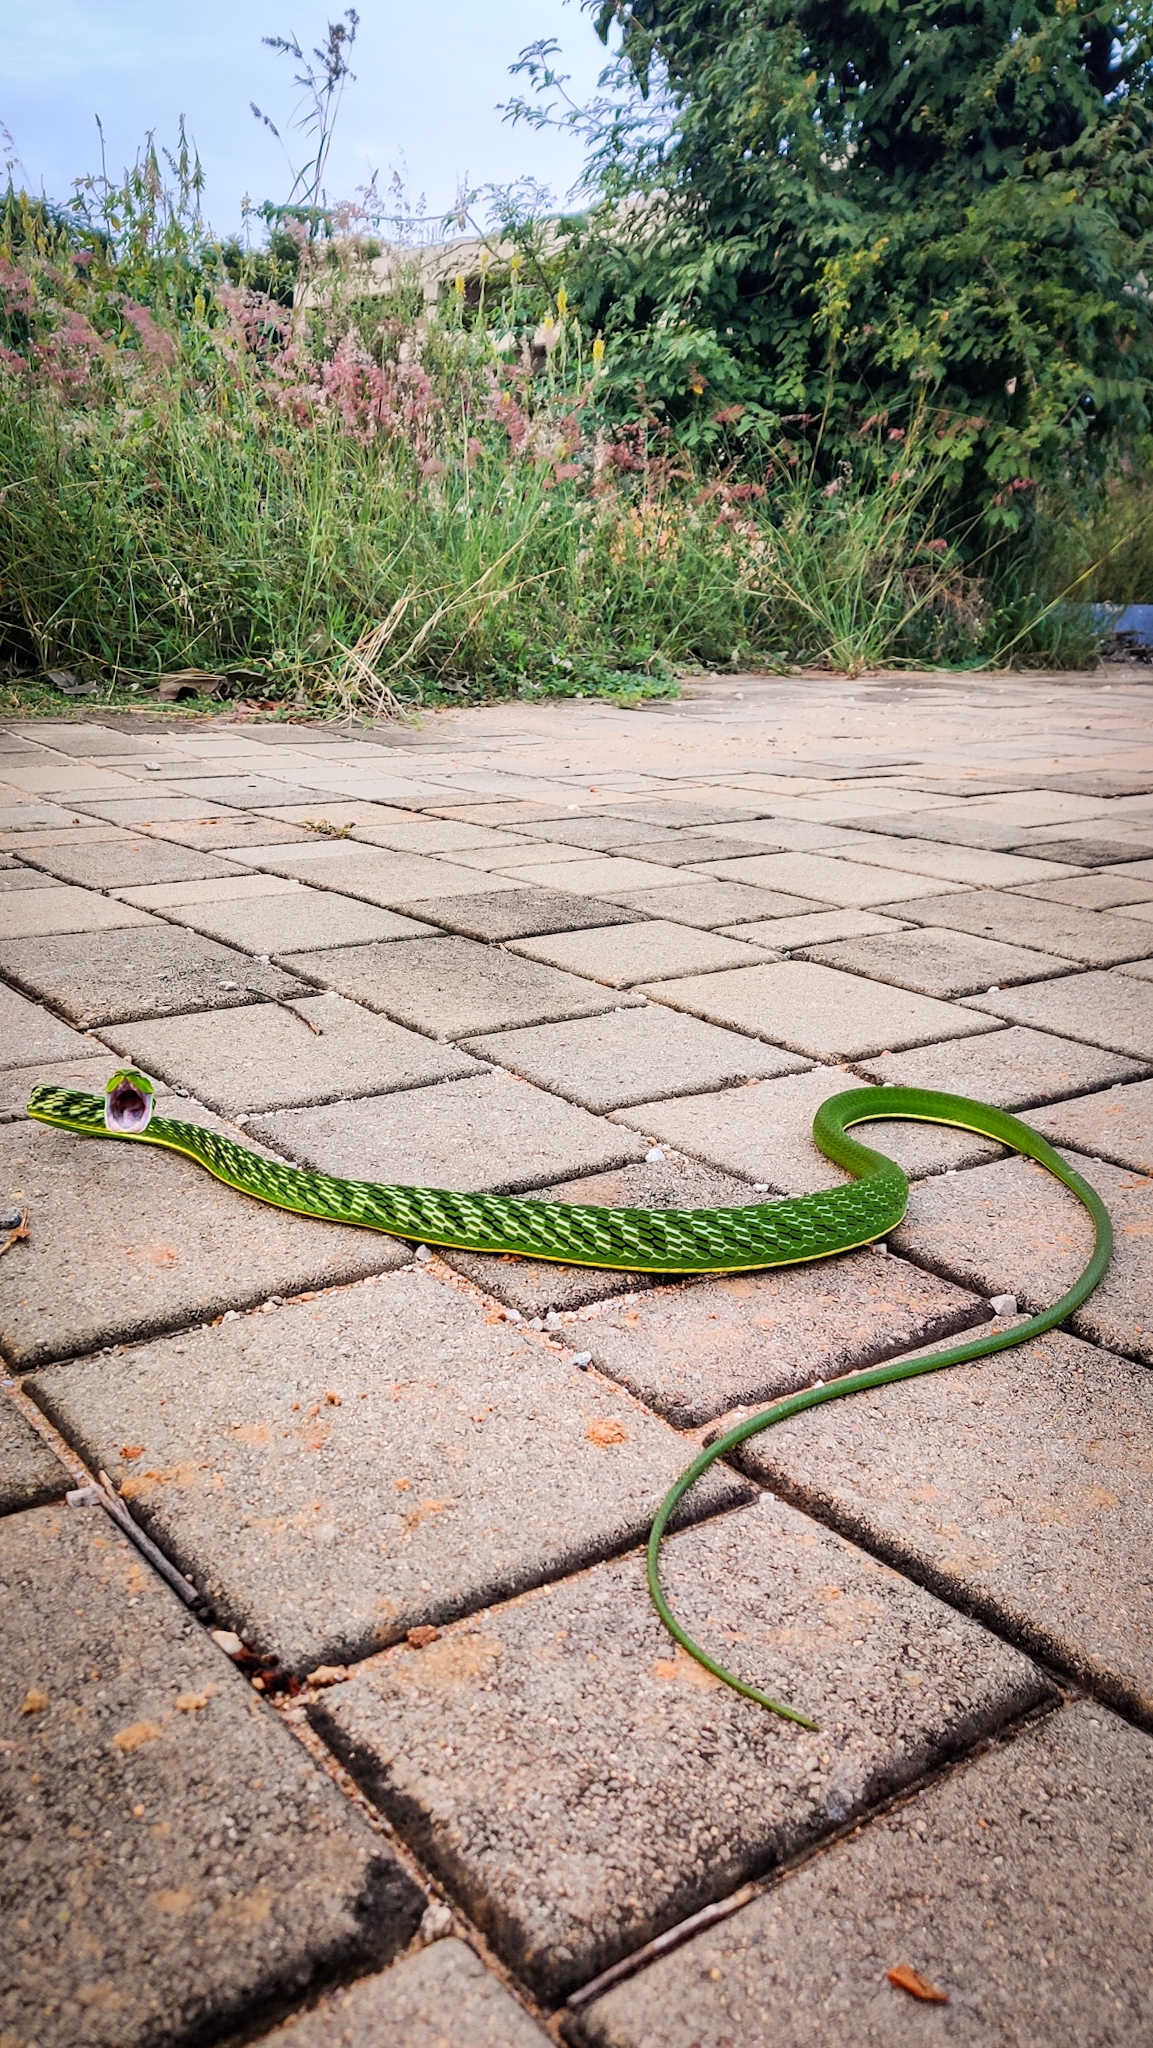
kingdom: Animalia
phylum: Chordata
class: Squamata
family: Colubridae
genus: Ahaetulla
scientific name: Ahaetulla oxyrhyncha
